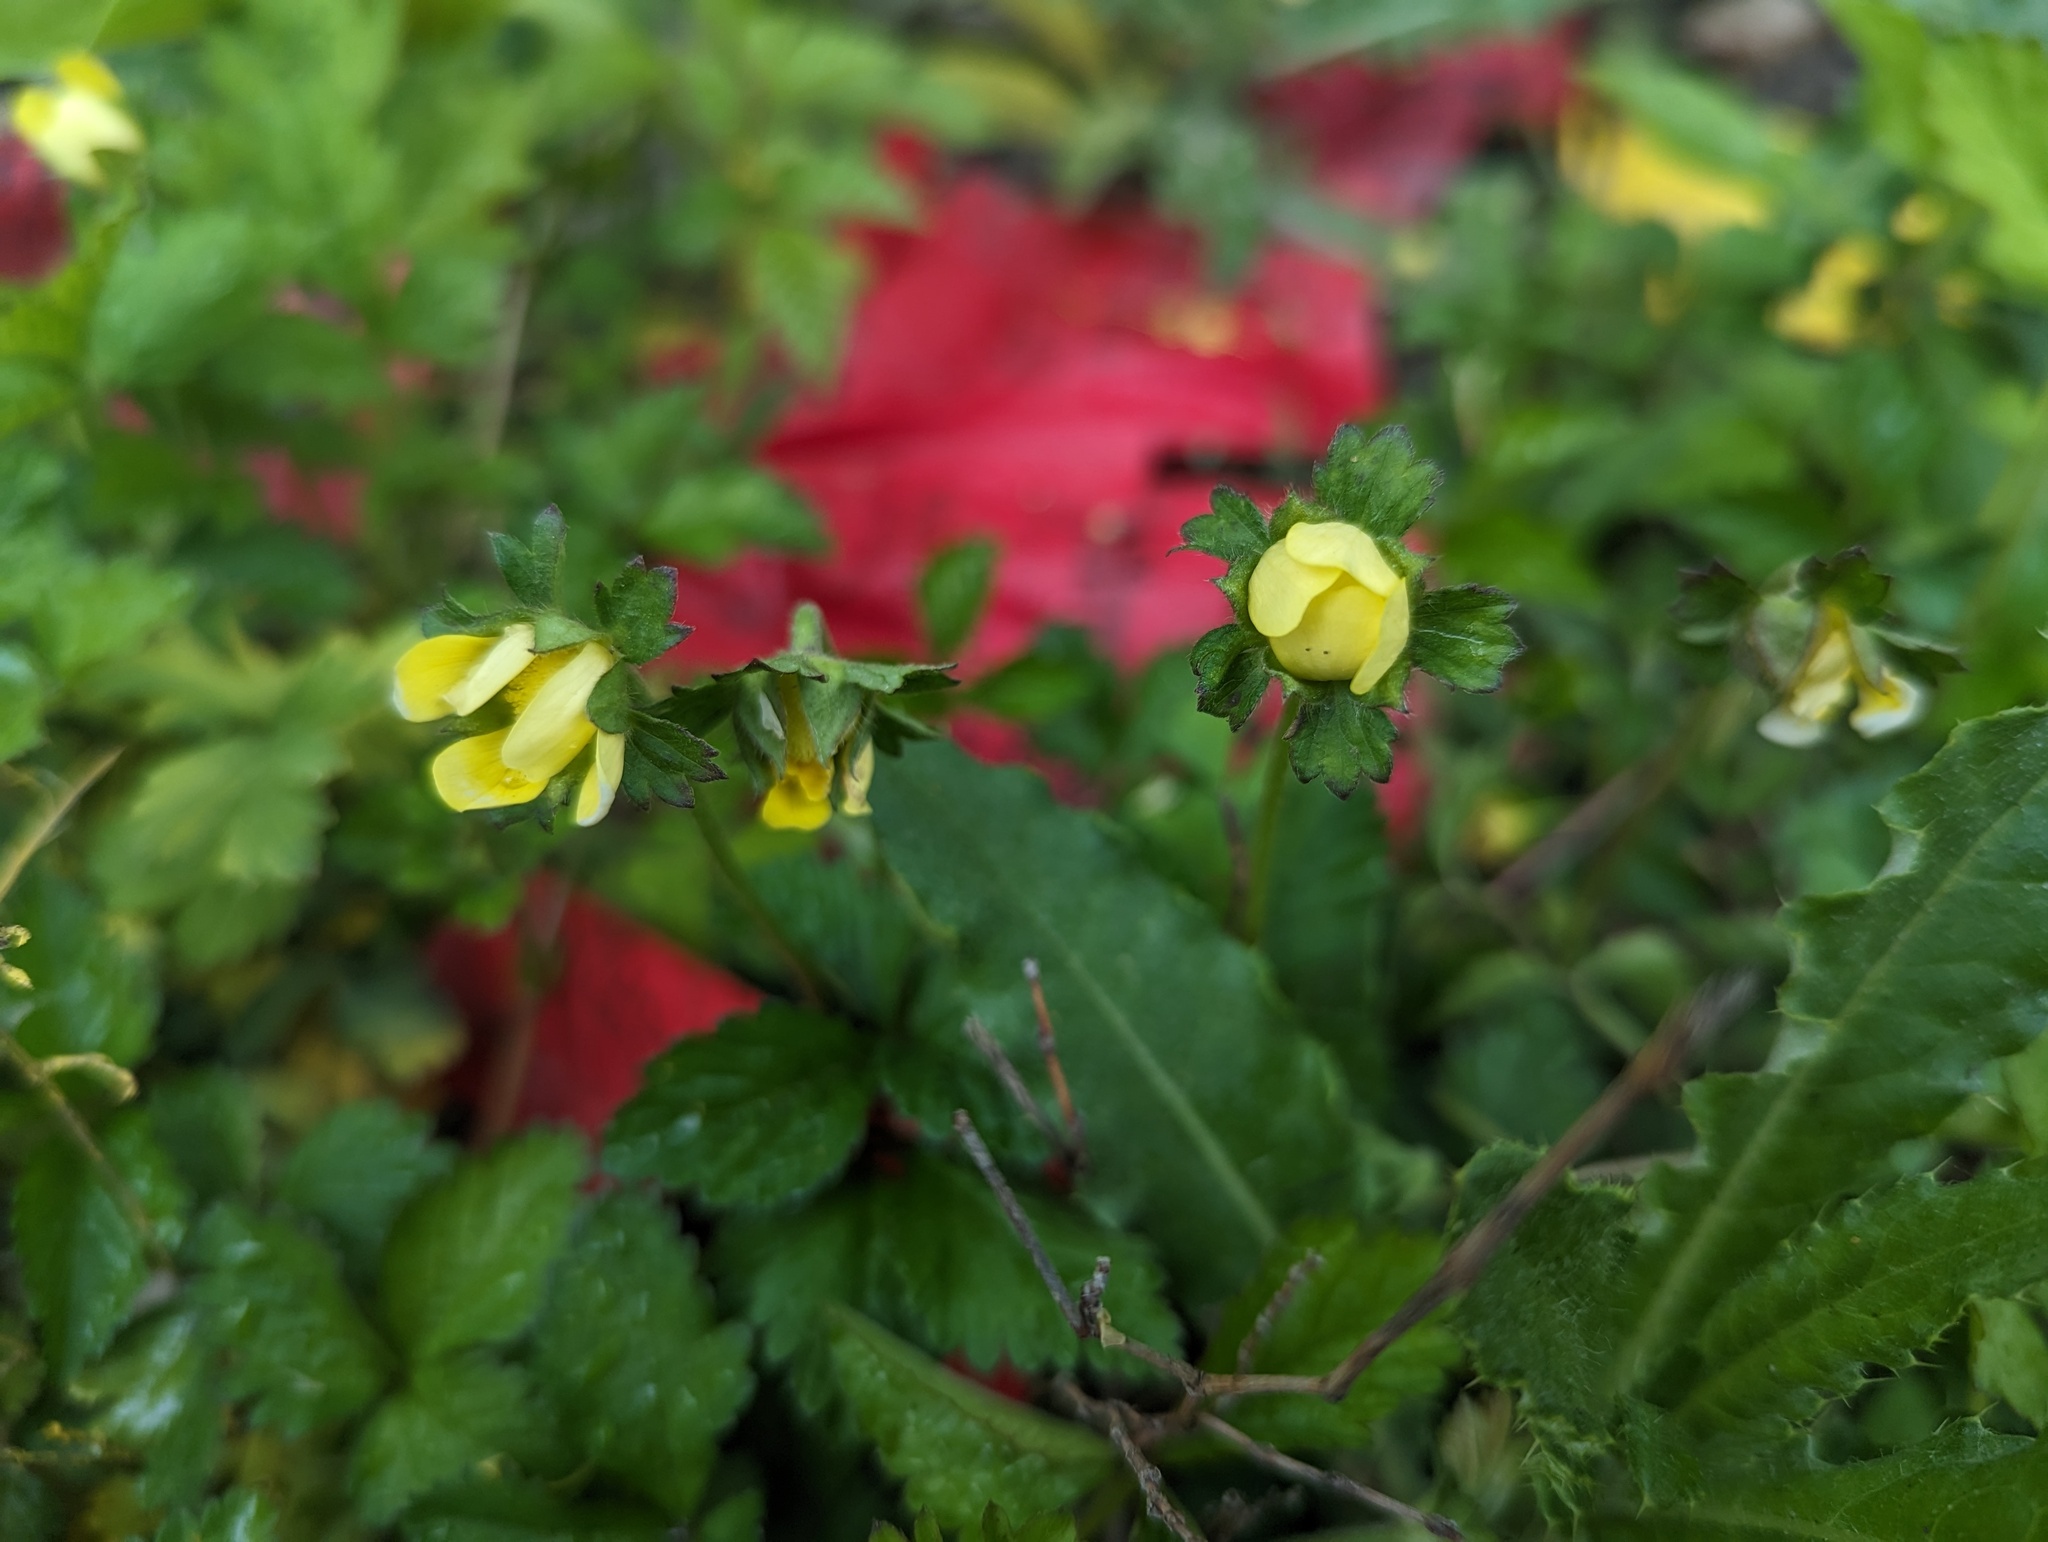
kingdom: Plantae
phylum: Tracheophyta
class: Magnoliopsida
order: Rosales
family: Rosaceae
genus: Potentilla
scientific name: Potentilla indica
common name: Yellow-flowered strawberry
